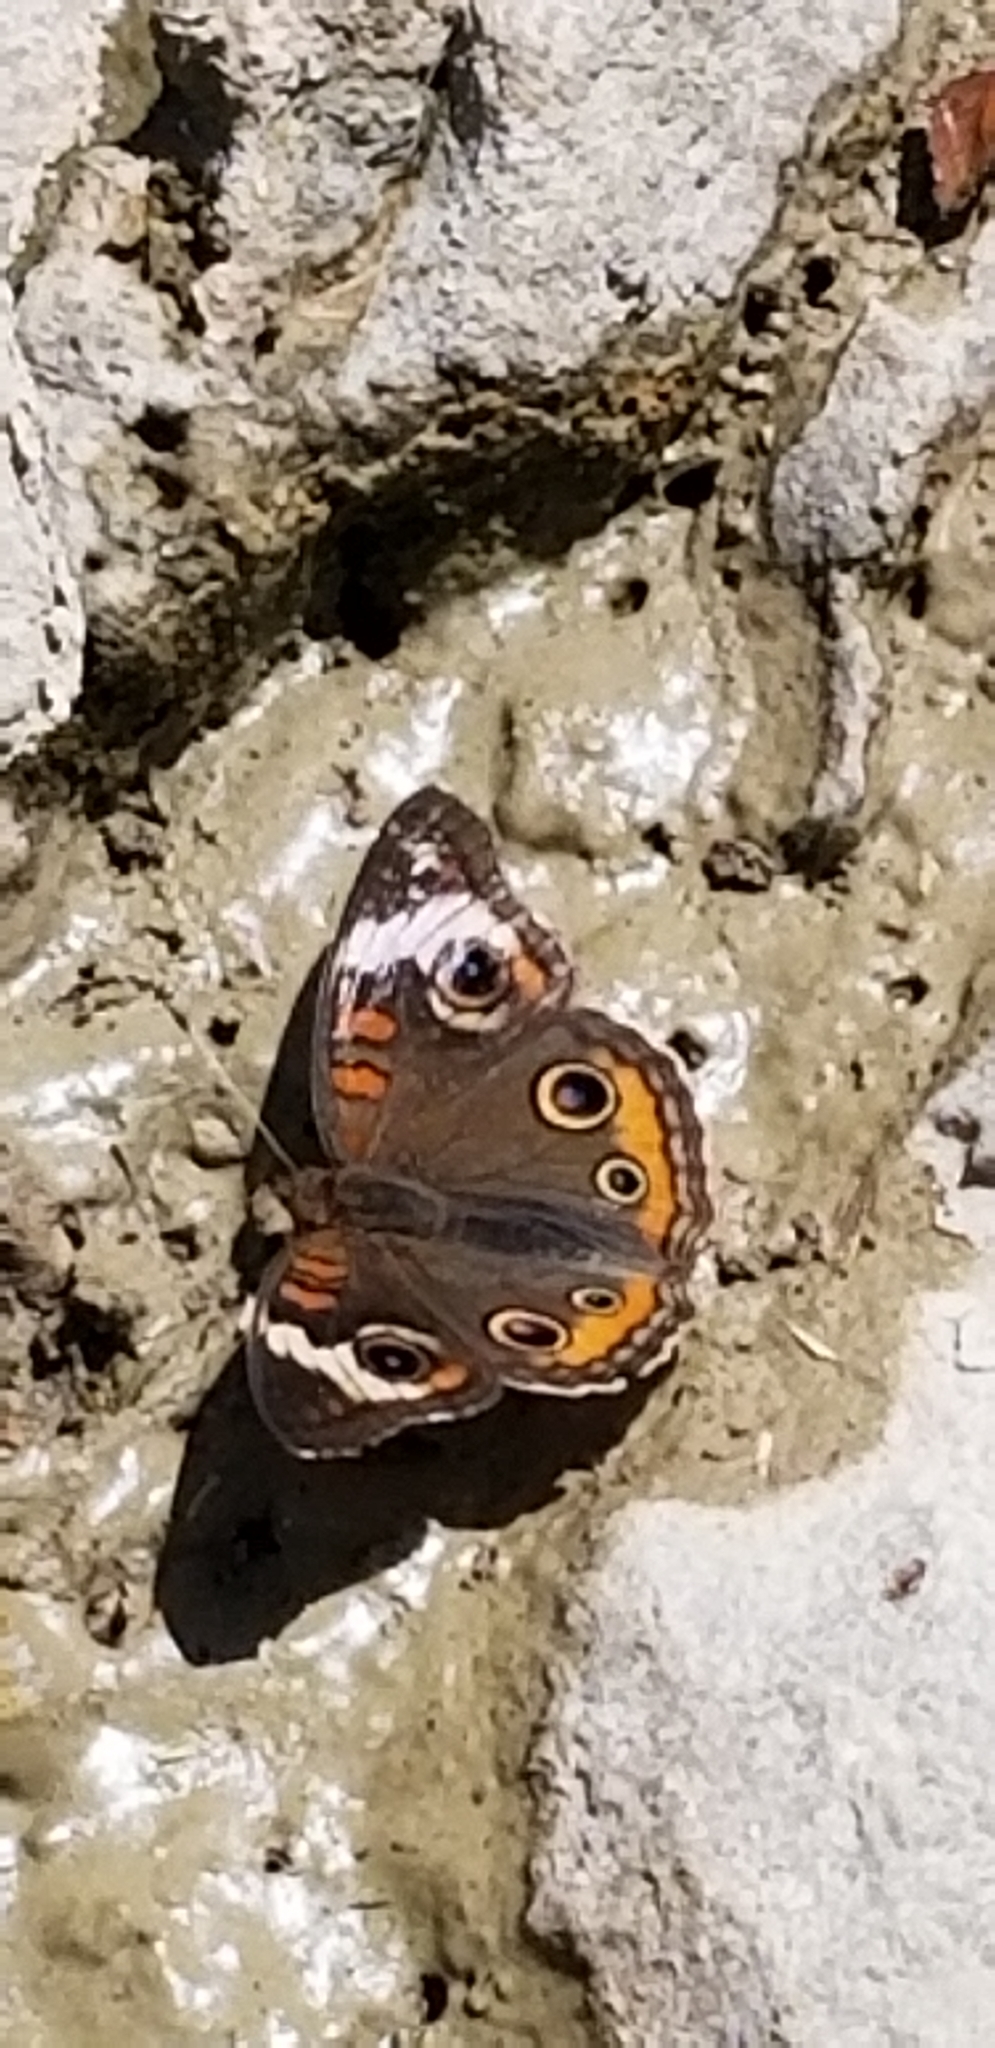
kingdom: Animalia
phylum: Arthropoda
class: Insecta
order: Lepidoptera
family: Nymphalidae
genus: Junonia
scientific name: Junonia coenia
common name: Common buckeye
